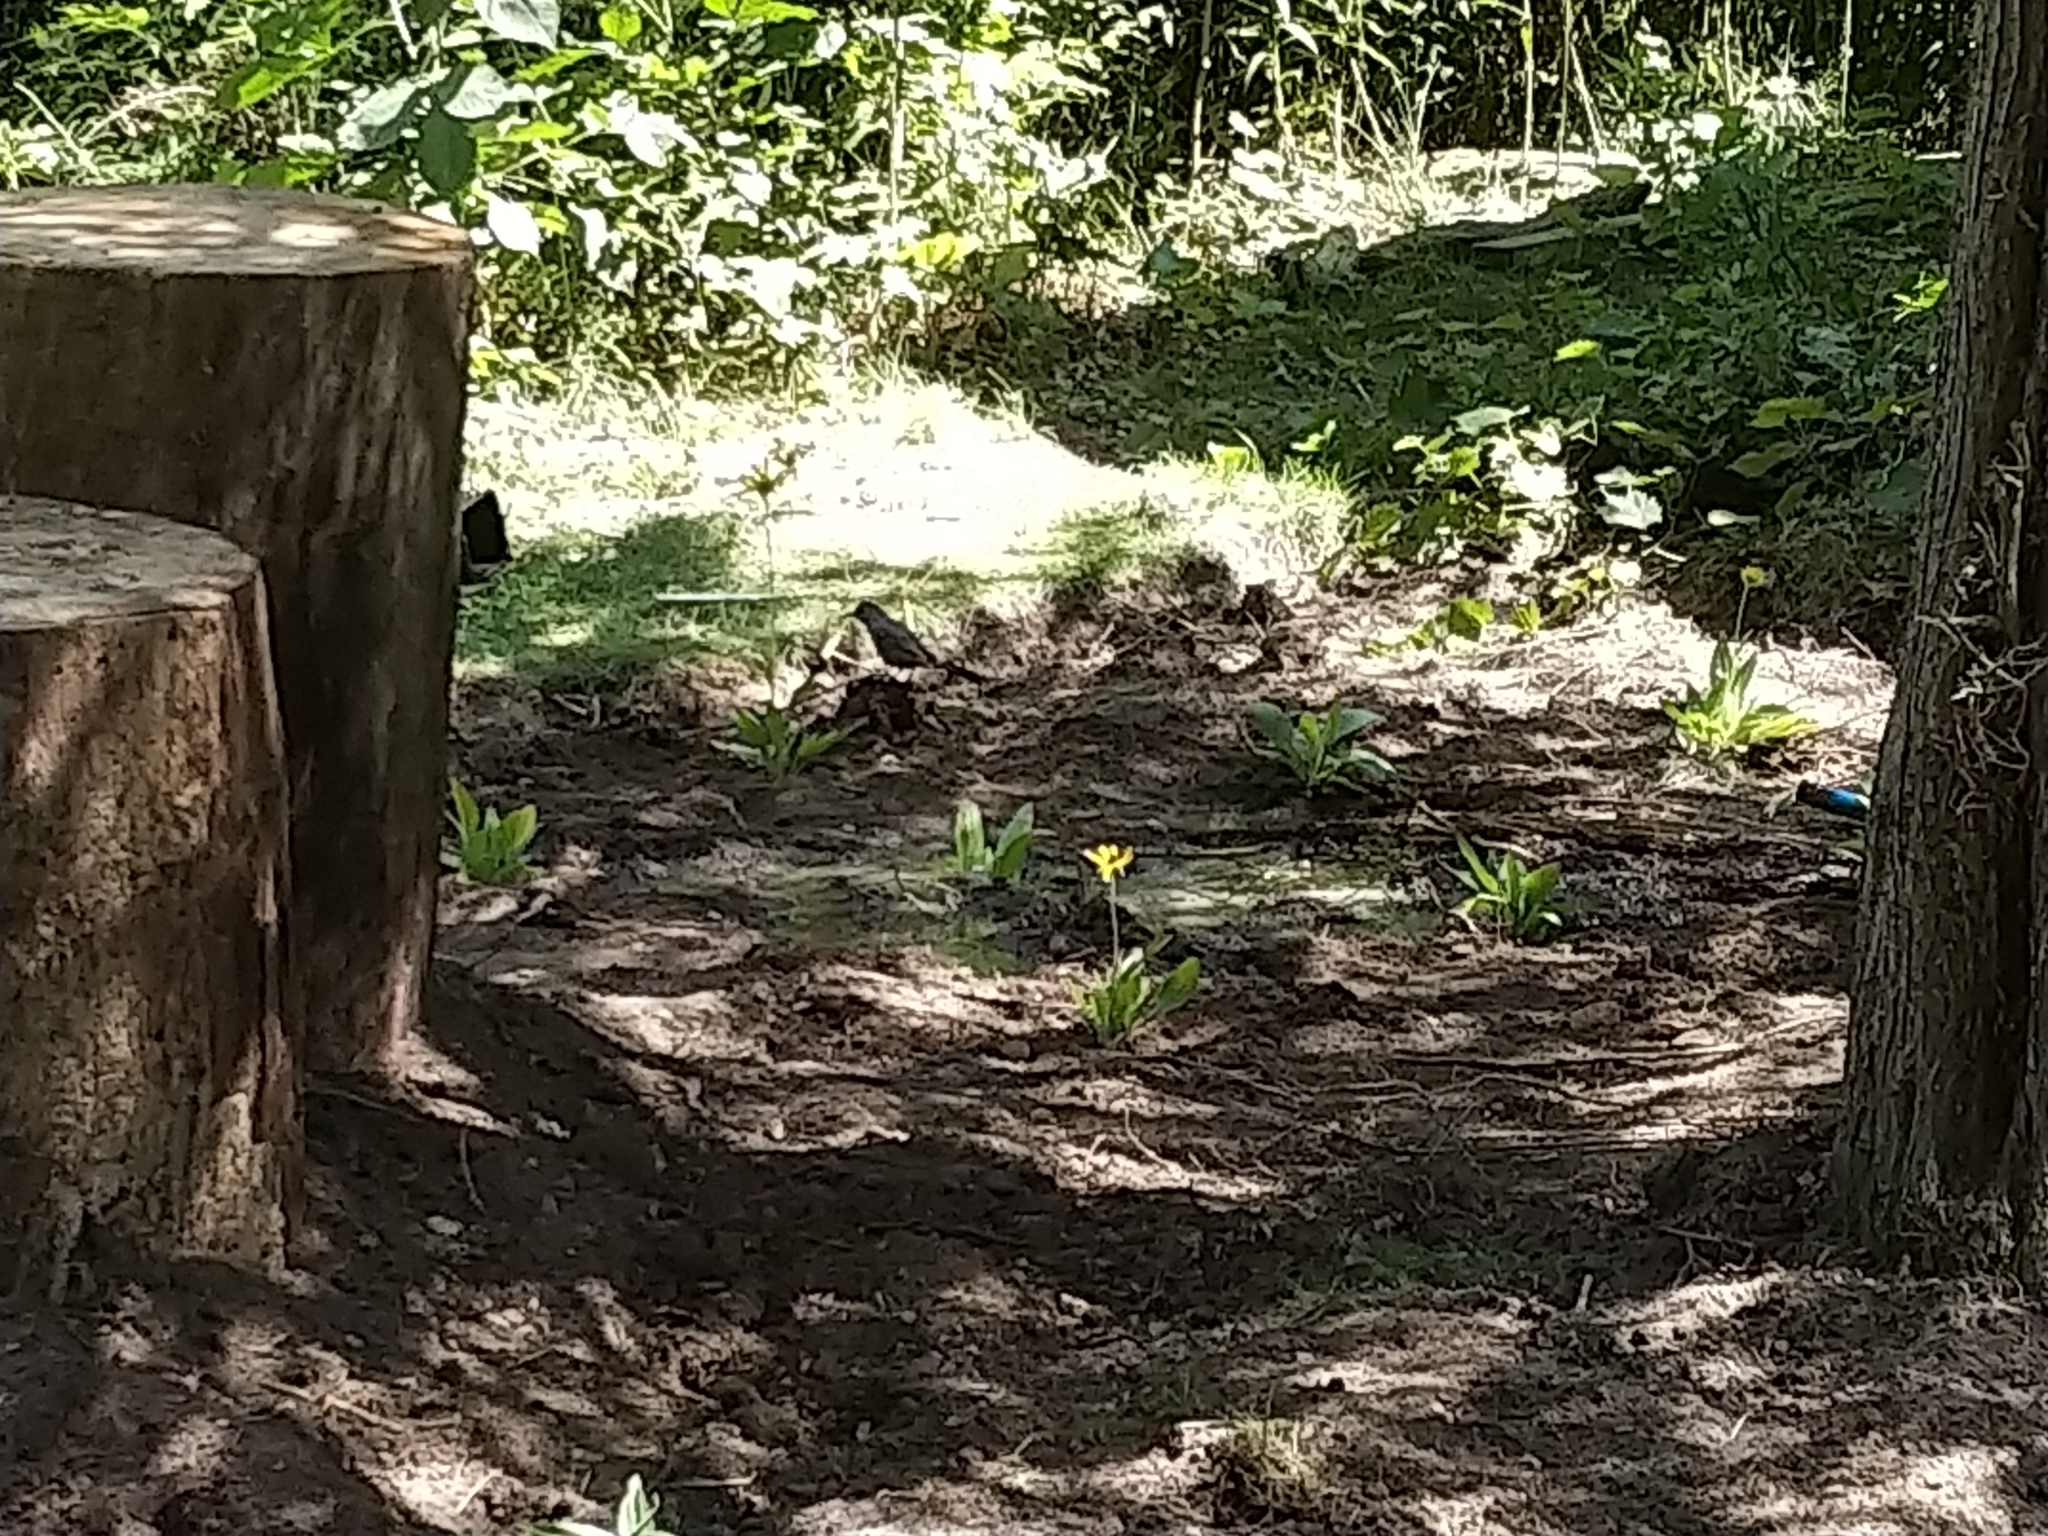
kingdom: Animalia
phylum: Chordata
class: Aves
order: Passeriformes
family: Mimidae
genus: Dumetella
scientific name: Dumetella carolinensis
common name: Gray catbird
